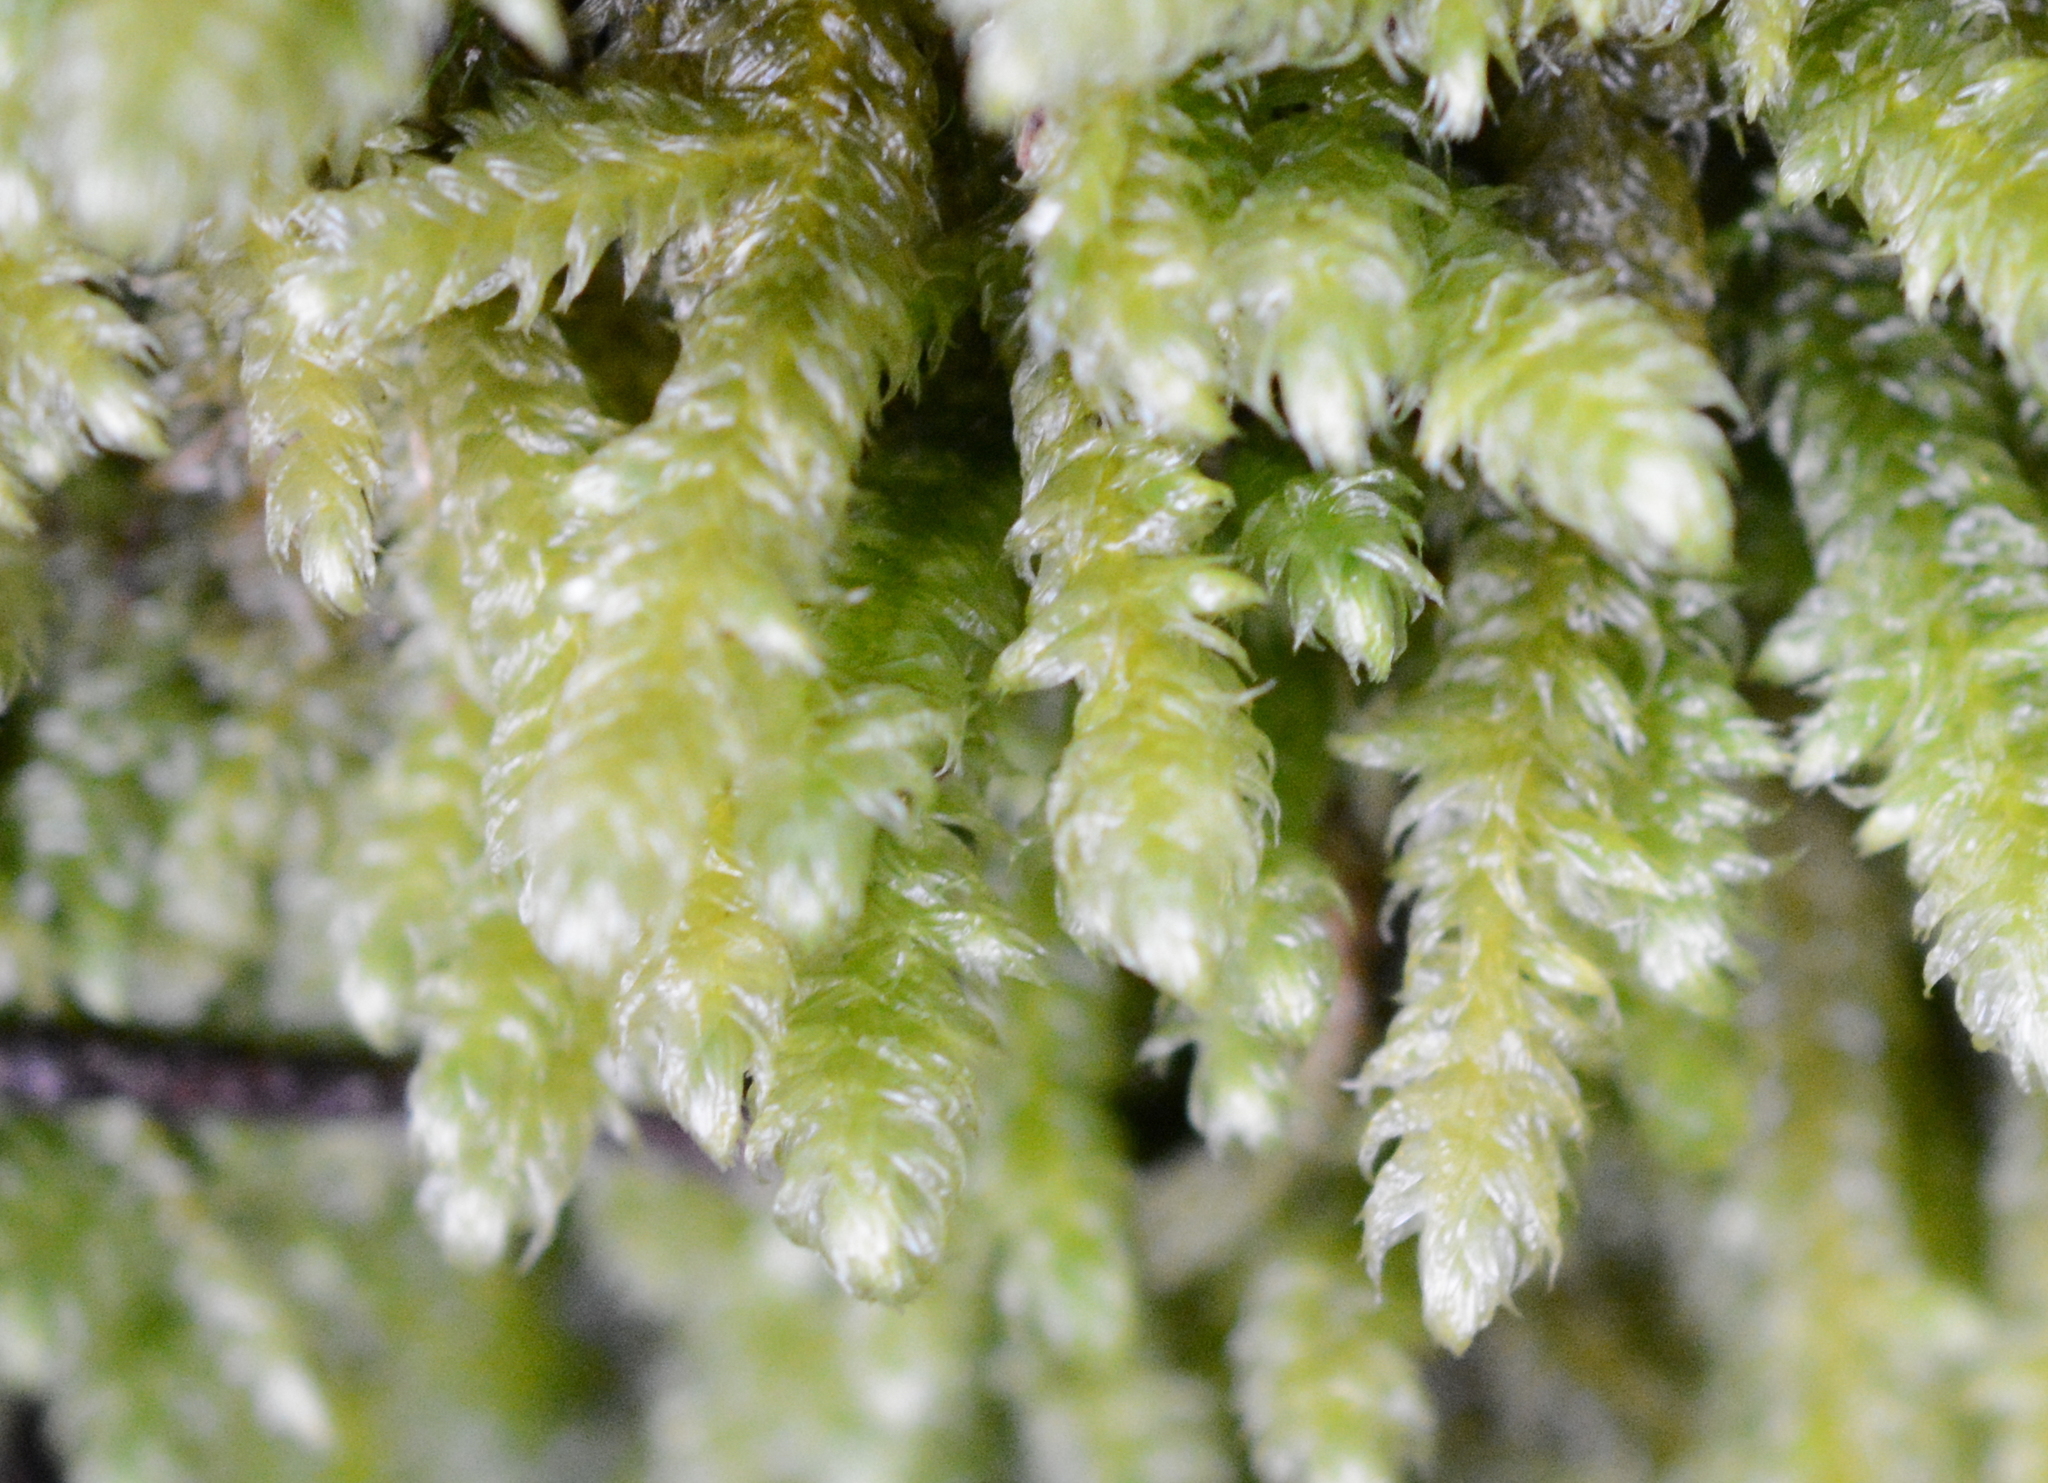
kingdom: Plantae
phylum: Bryophyta
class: Bryopsida
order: Hypnales
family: Hylocomiaceae
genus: Rhytidiopsis
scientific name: Rhytidiopsis robusta
